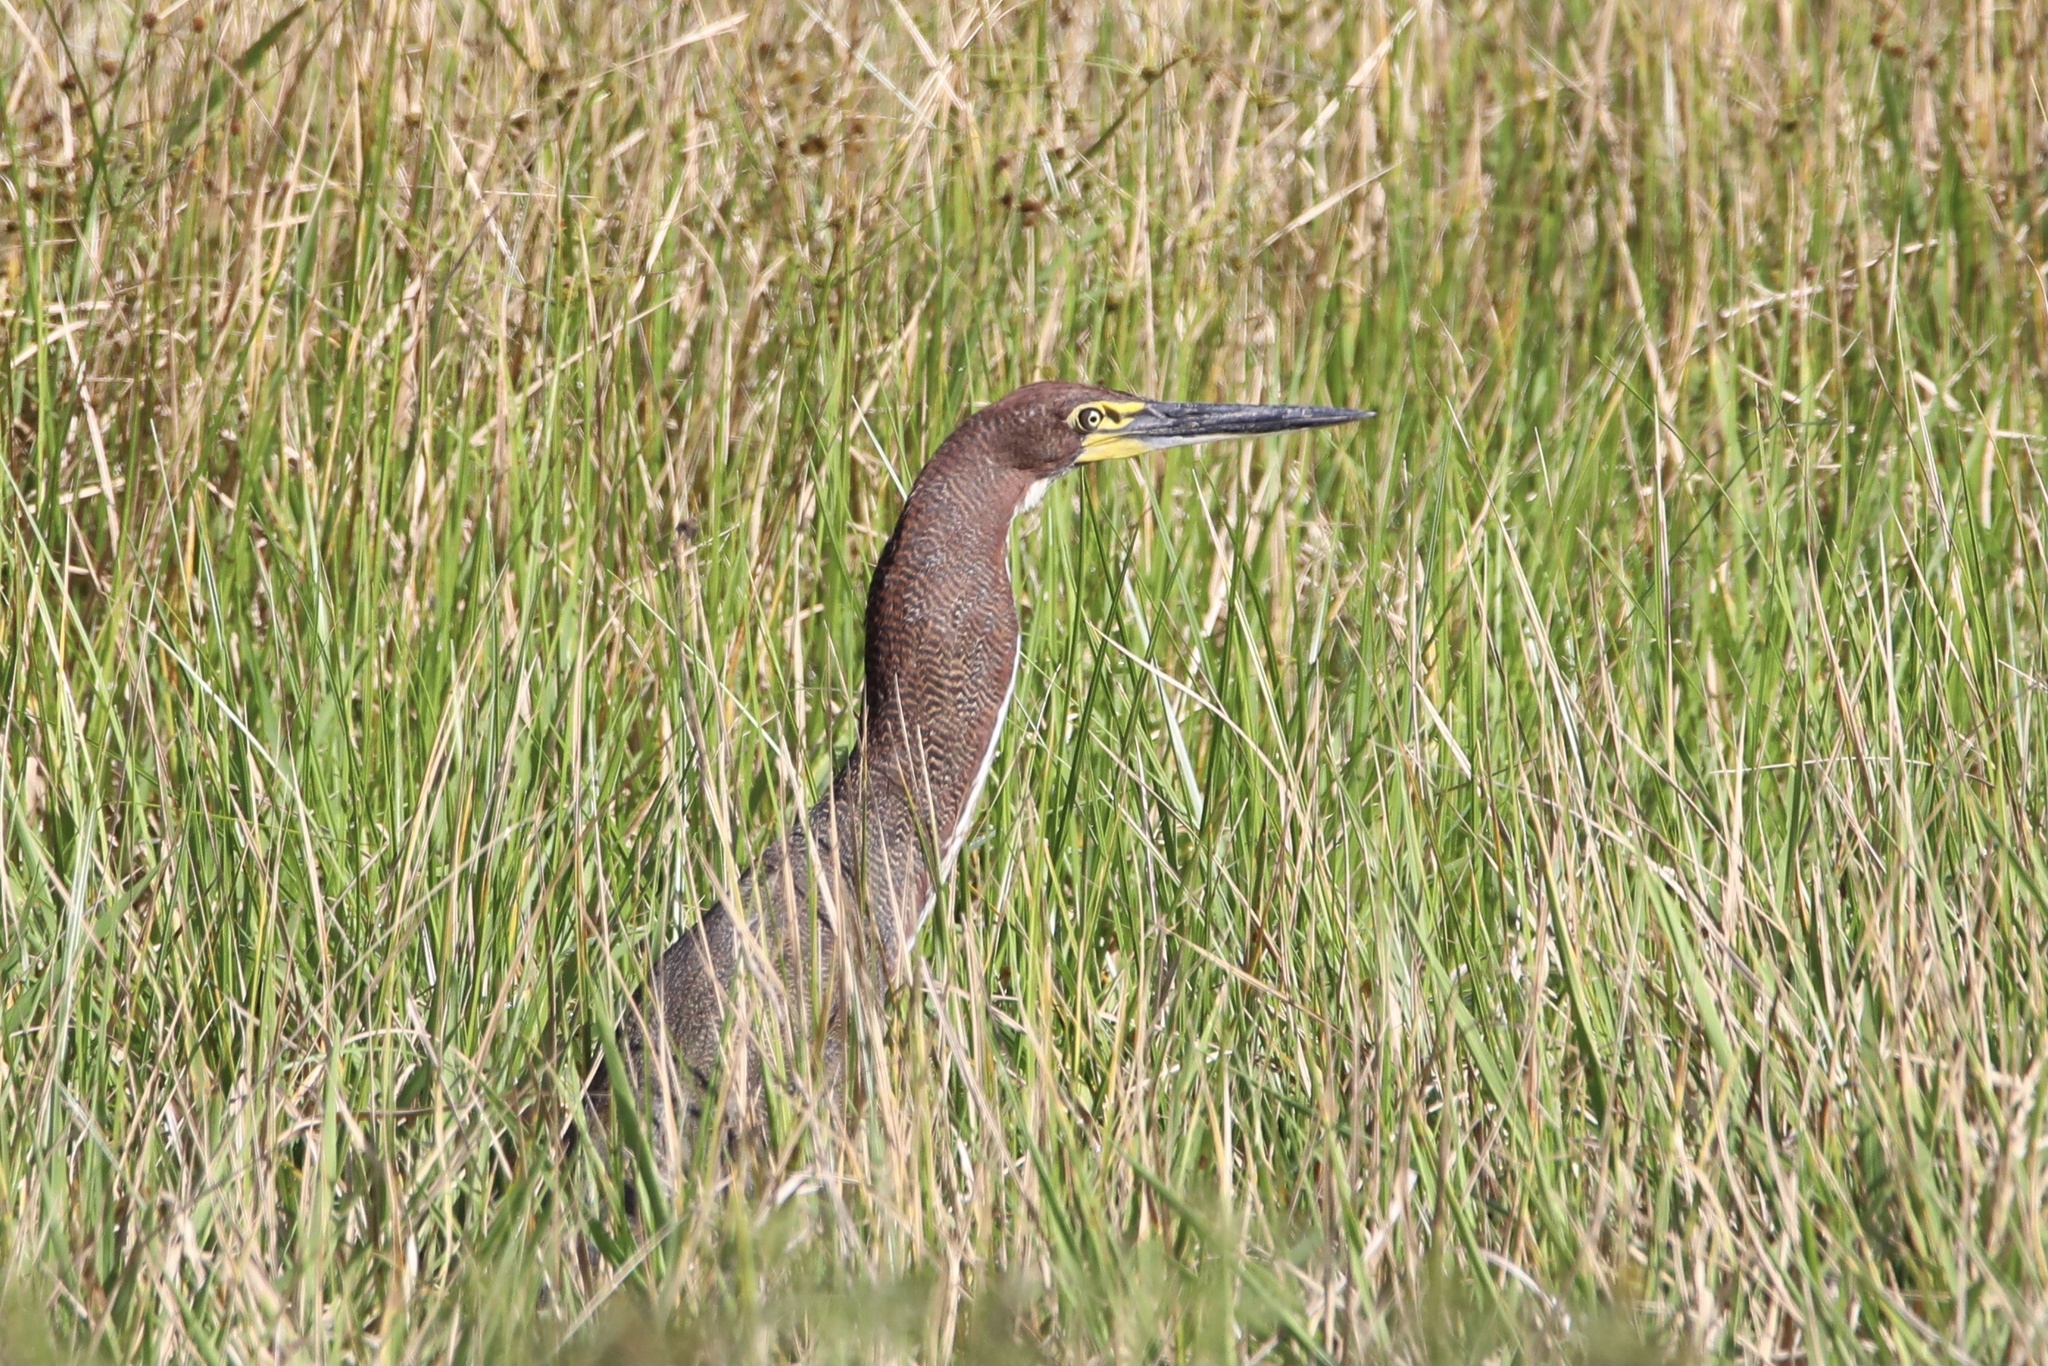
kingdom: Animalia
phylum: Chordata
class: Aves
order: Pelecaniformes
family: Ardeidae
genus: Tigrisoma
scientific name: Tigrisoma lineatum
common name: Rufescent tiger-heron
